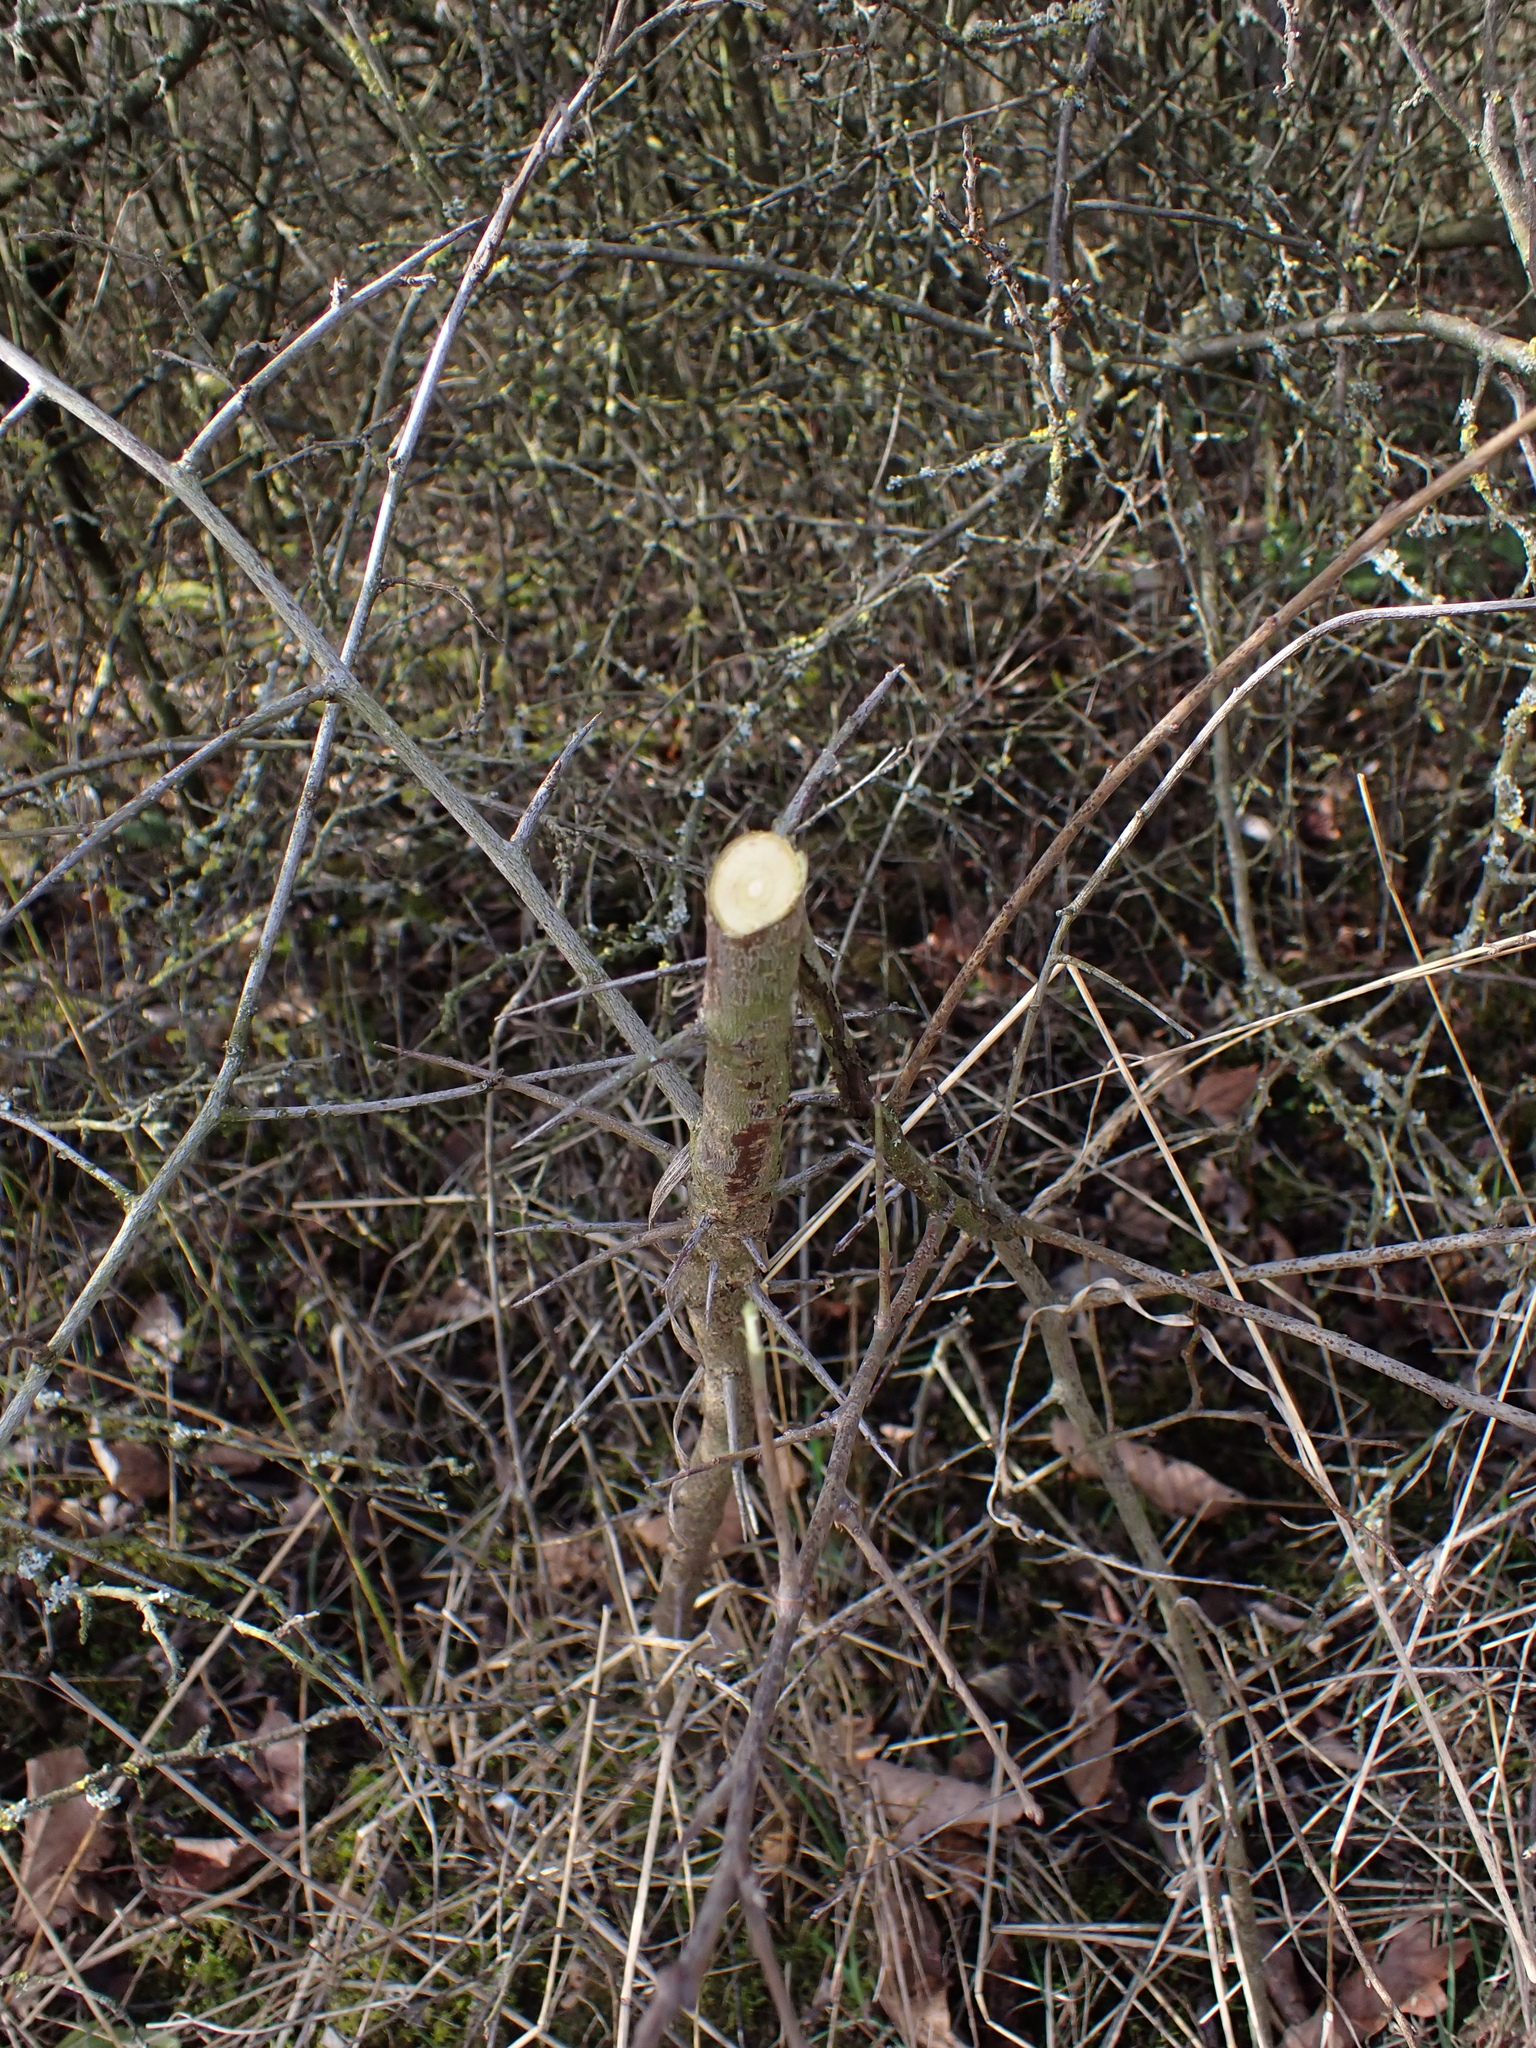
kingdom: Animalia
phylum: Arthropoda
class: Insecta
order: Diptera
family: Agromyzidae
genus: Phytobia
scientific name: Phytobia cerasiferae
